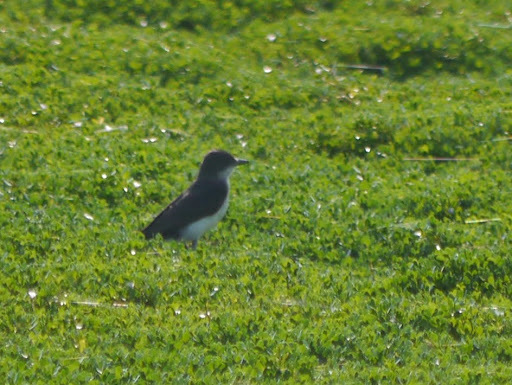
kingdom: Animalia
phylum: Chordata
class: Aves
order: Passeriformes
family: Tyrannidae
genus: Tyrannus
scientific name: Tyrannus tyrannus
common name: Eastern kingbird
